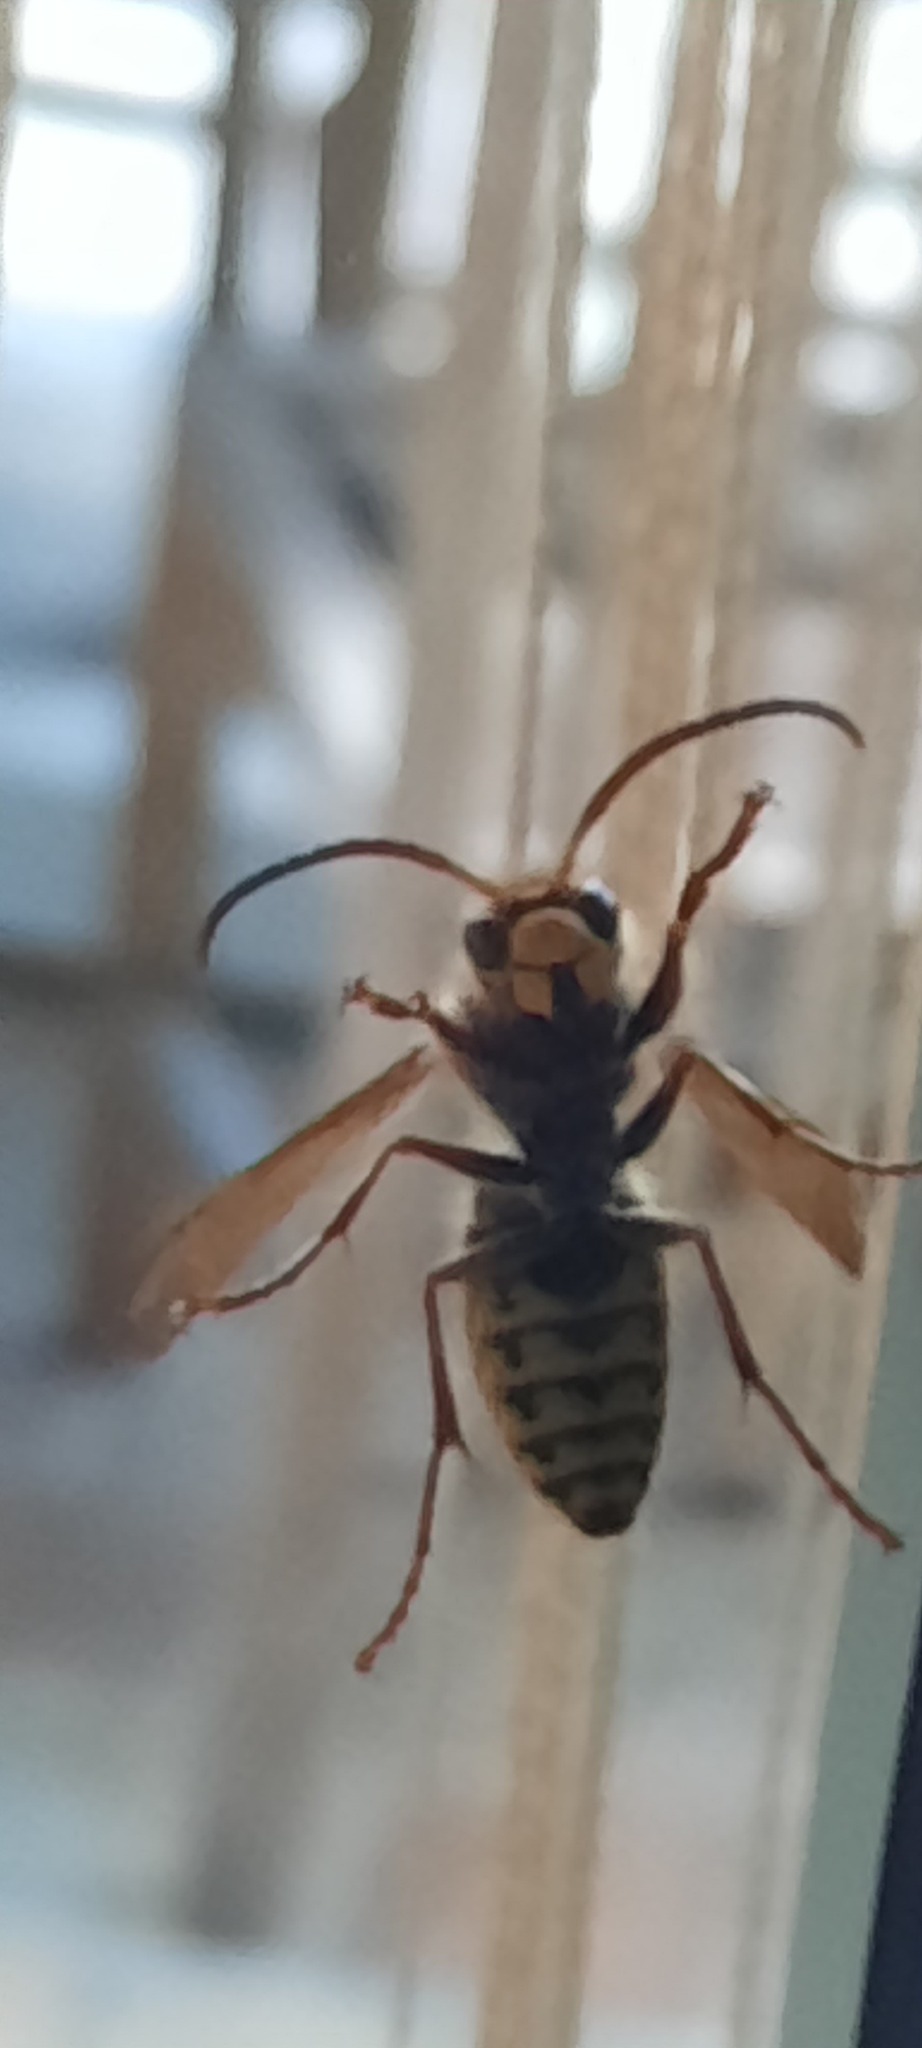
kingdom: Animalia
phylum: Arthropoda
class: Insecta
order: Hymenoptera
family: Vespidae
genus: Vespa
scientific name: Vespa crabro
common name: Hornet
